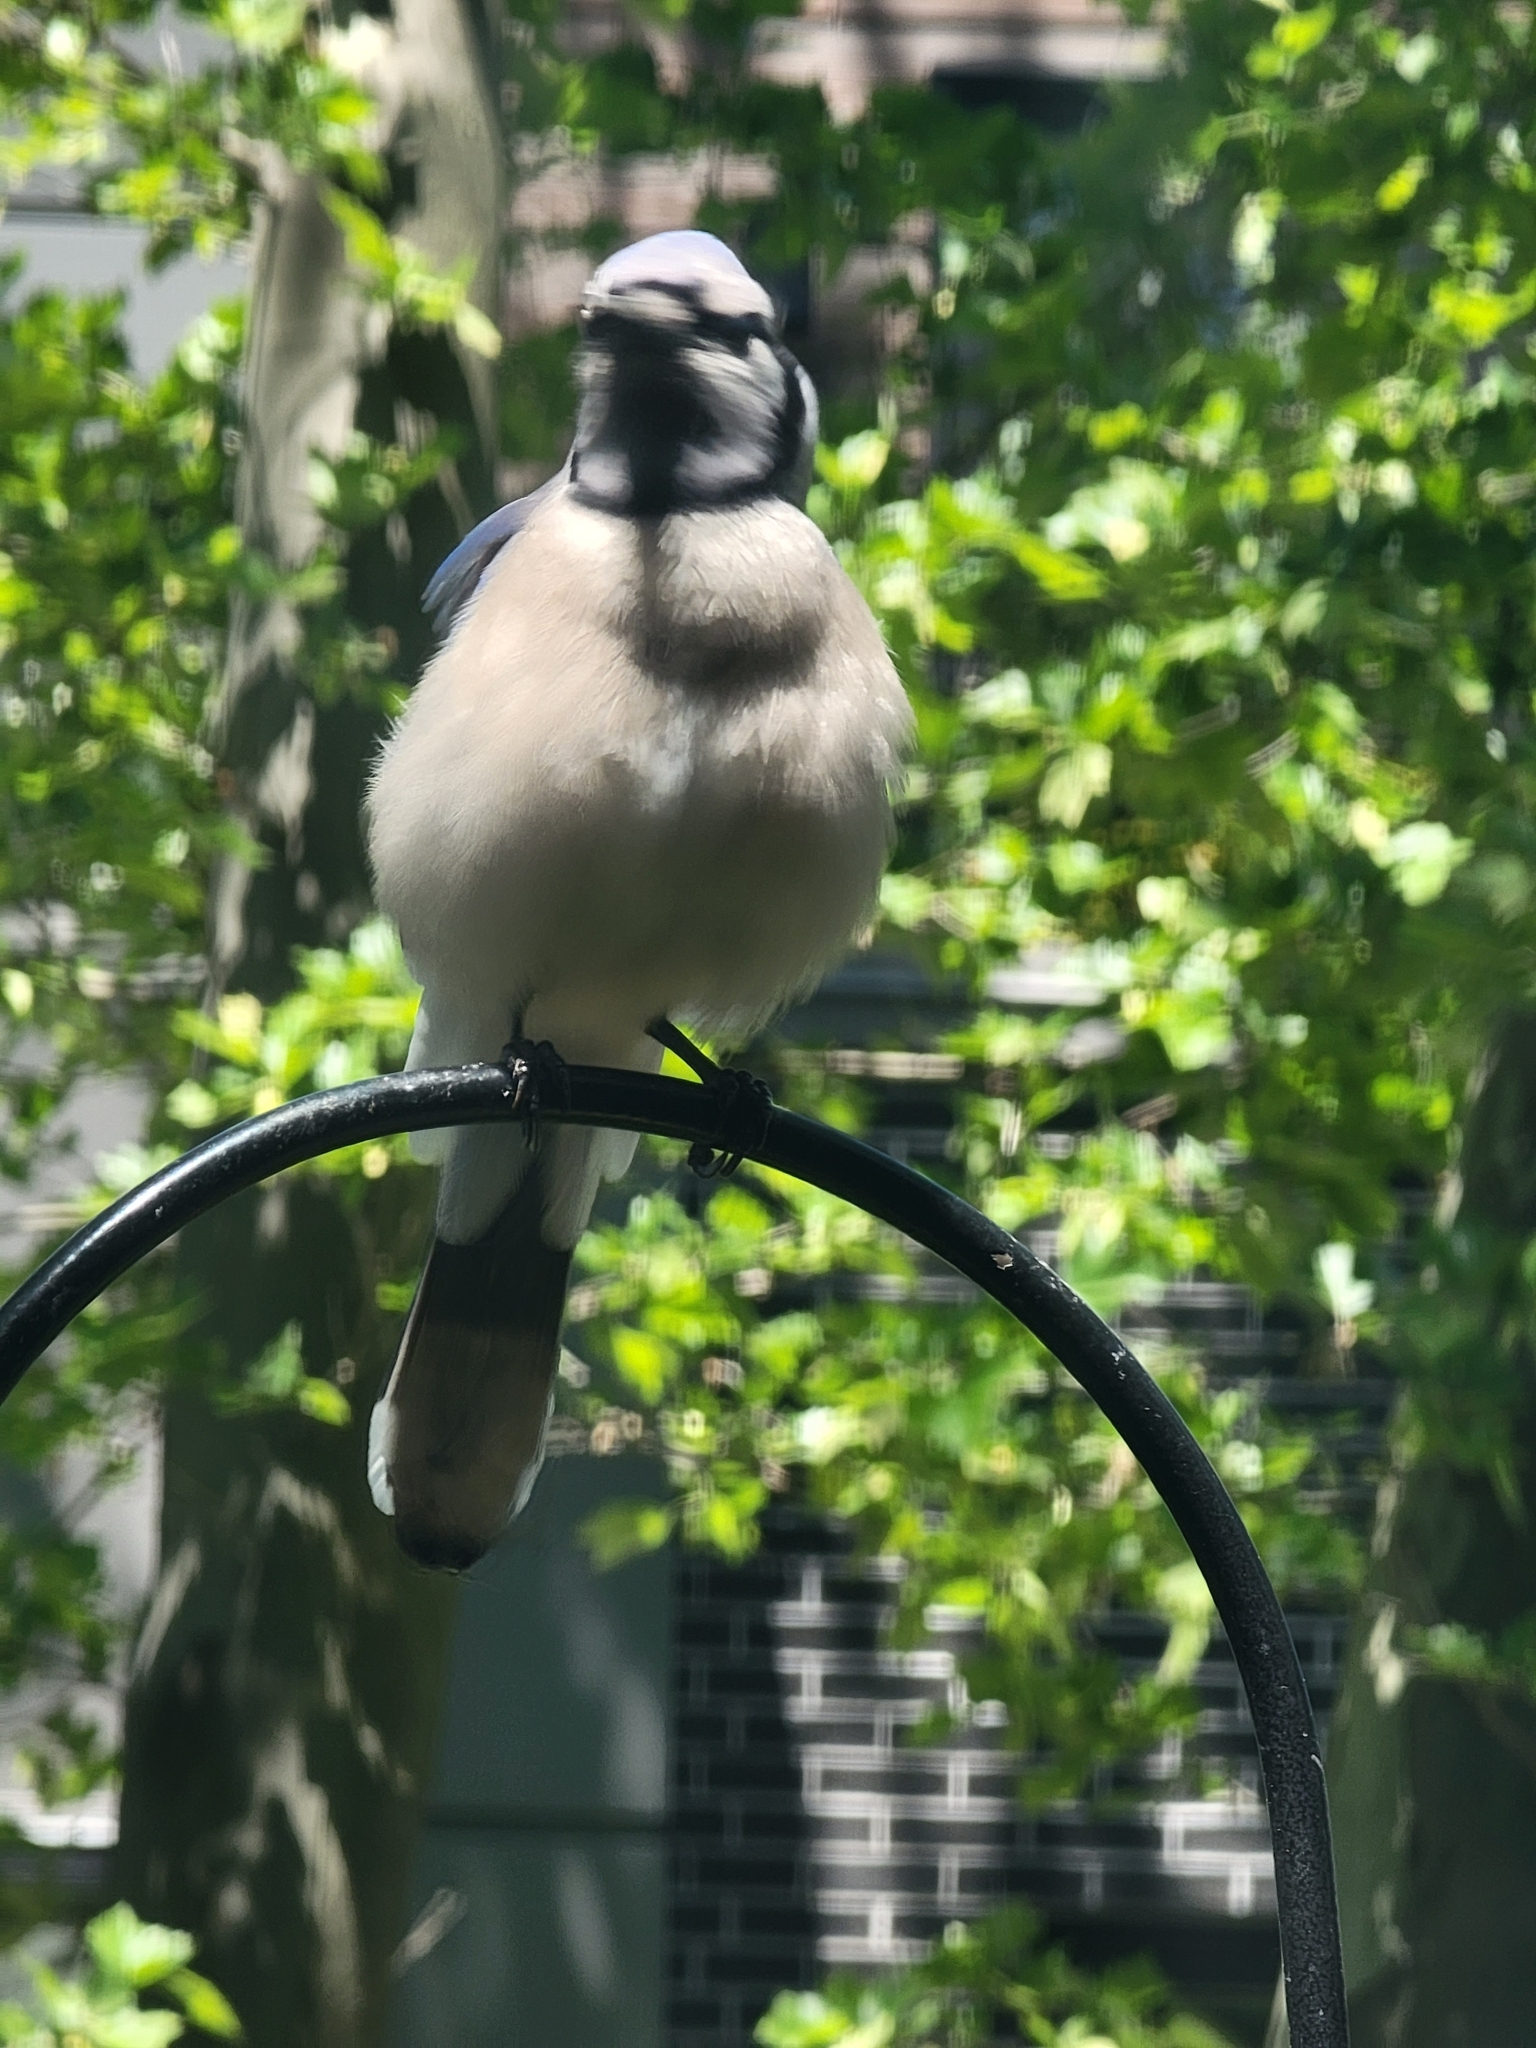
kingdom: Animalia
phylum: Chordata
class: Aves
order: Passeriformes
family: Corvidae
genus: Cyanocitta
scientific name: Cyanocitta cristata
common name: Blue jay
